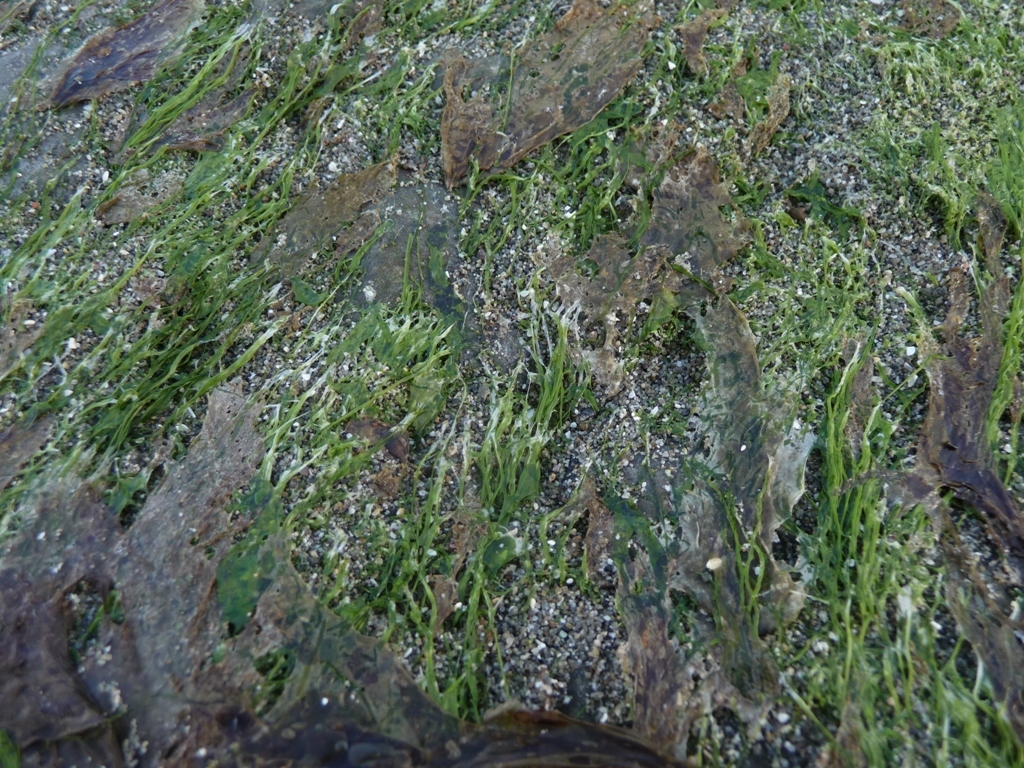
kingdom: Plantae
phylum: Chlorophyta
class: Ulvophyceae
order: Ulvales
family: Ulvaceae
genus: Ulva
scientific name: Ulva intestinalis
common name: Gut weed
